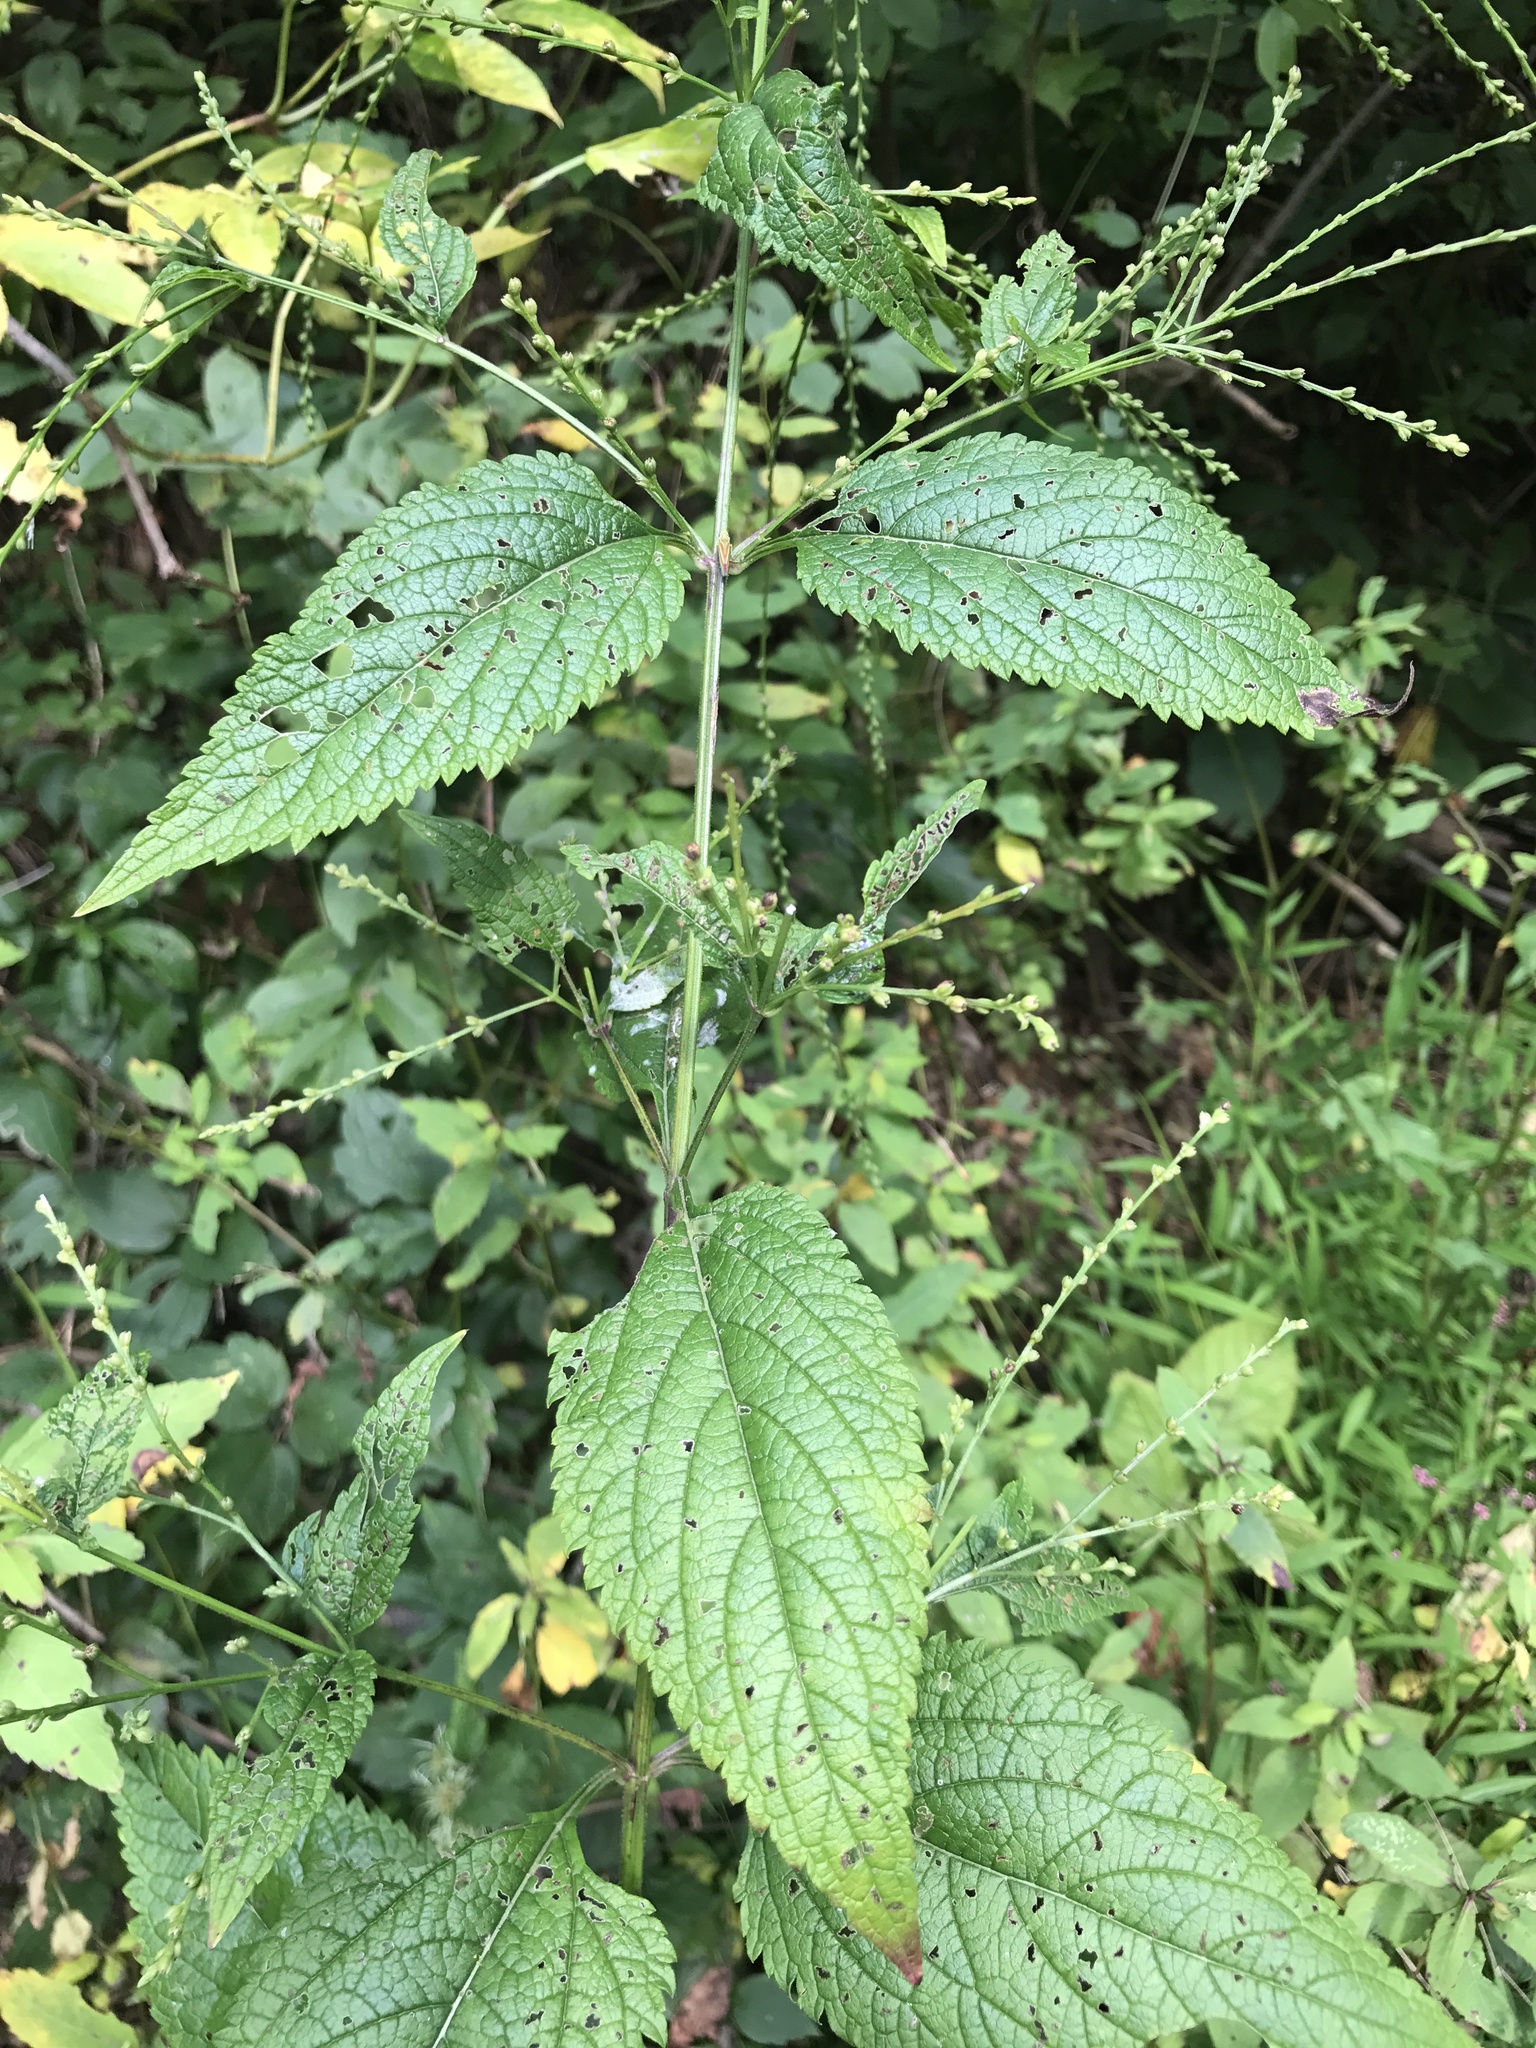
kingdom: Plantae
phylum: Tracheophyta
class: Magnoliopsida
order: Lamiales
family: Verbenaceae
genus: Verbena
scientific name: Verbena urticifolia
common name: Nettle-leaved vervain
